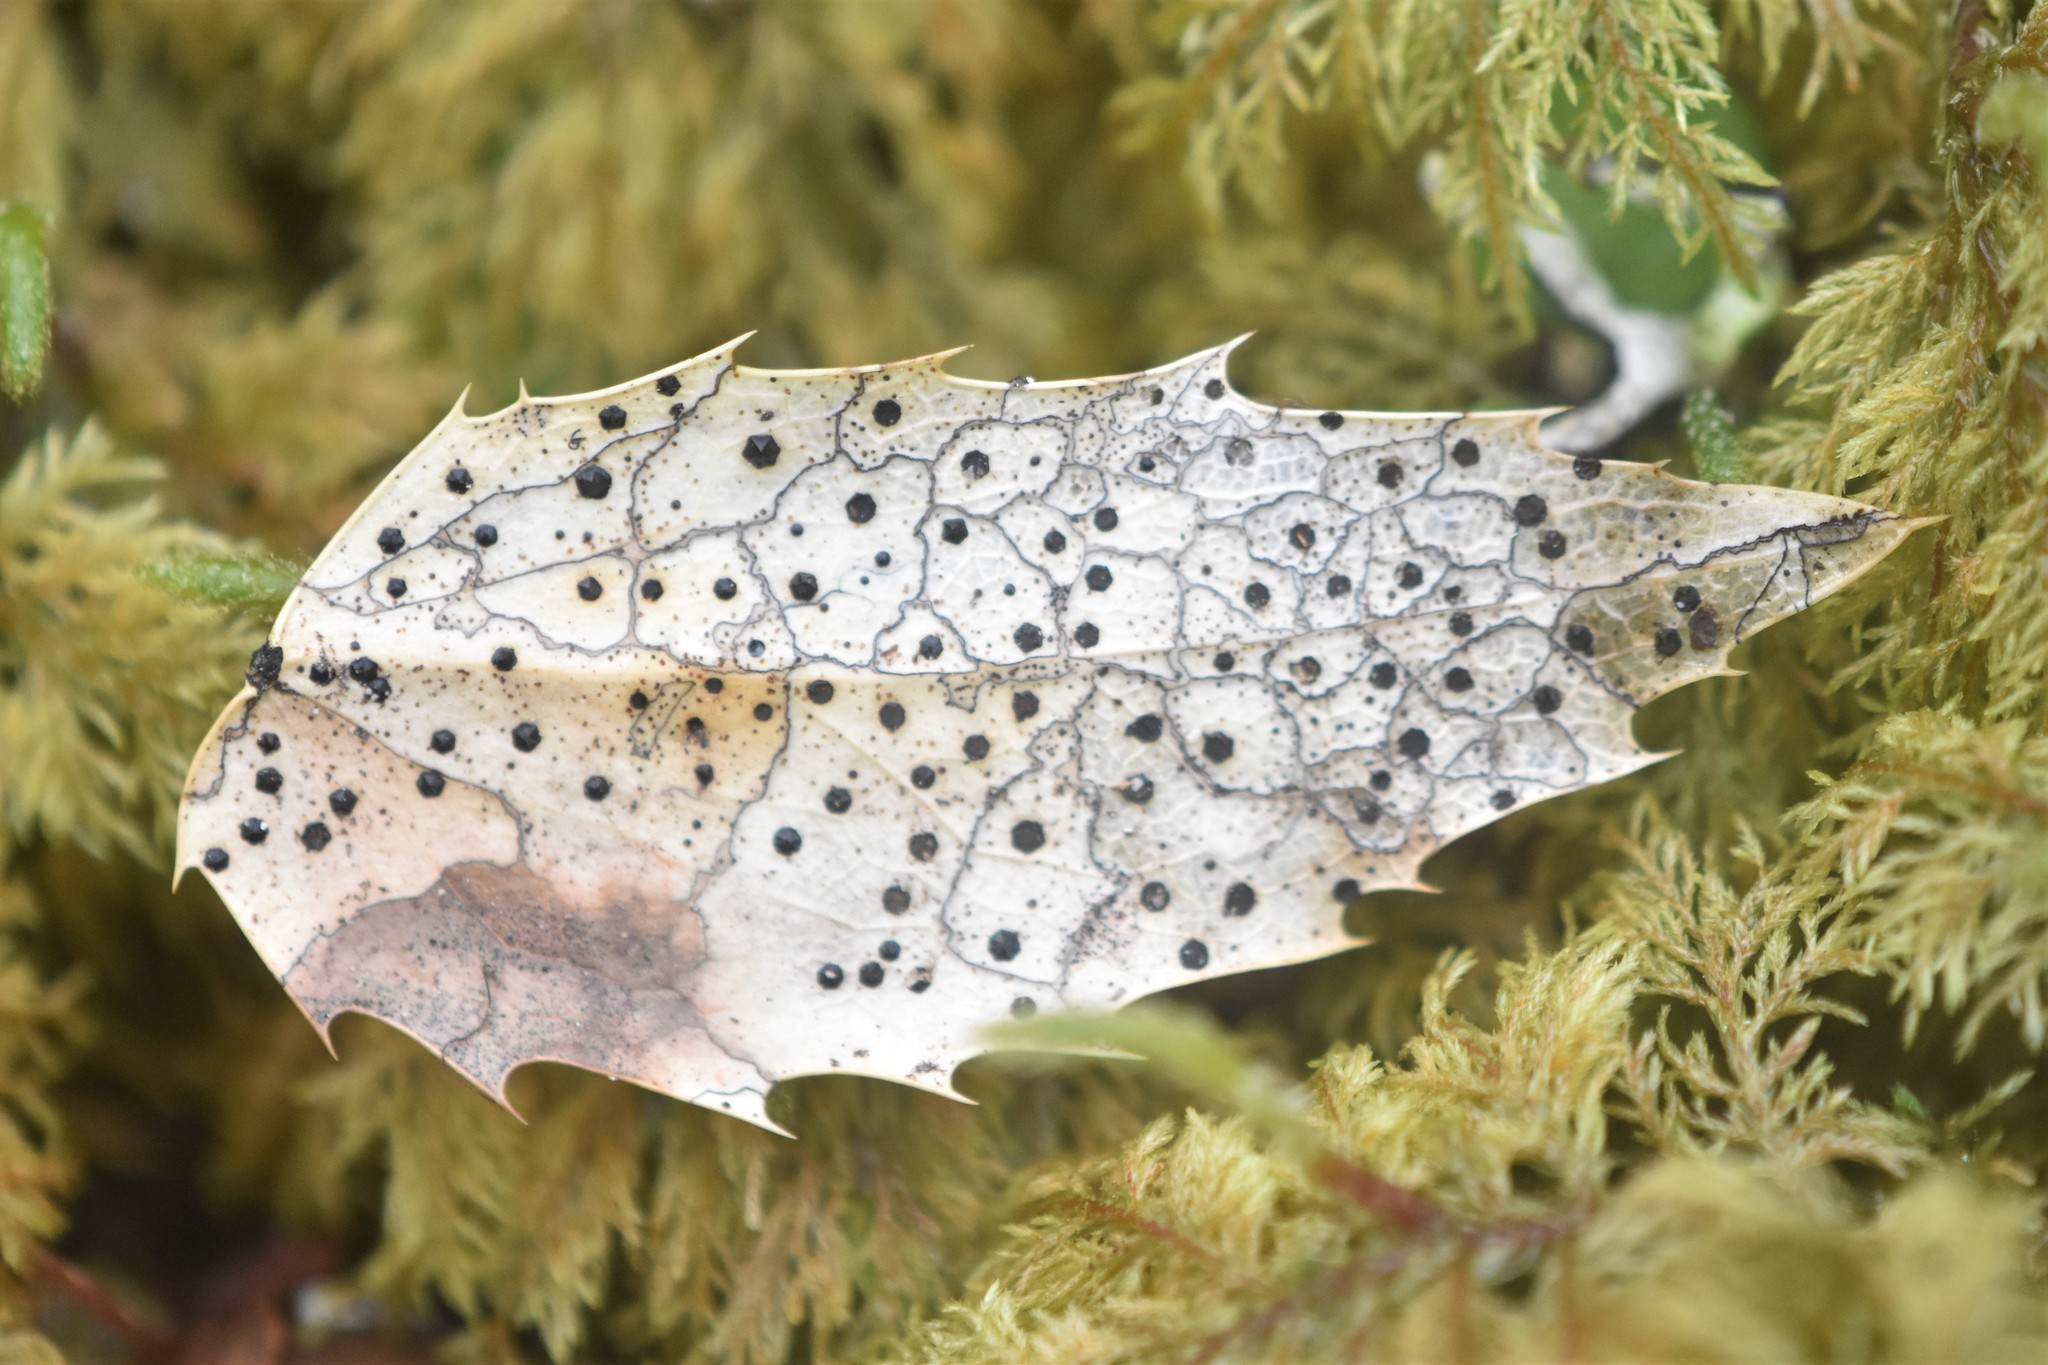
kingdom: Fungi
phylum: Ascomycota
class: Leotiomycetes
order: Rhytismatales
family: Rhytismataceae
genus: Coccomyces
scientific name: Coccomyces dentatus
